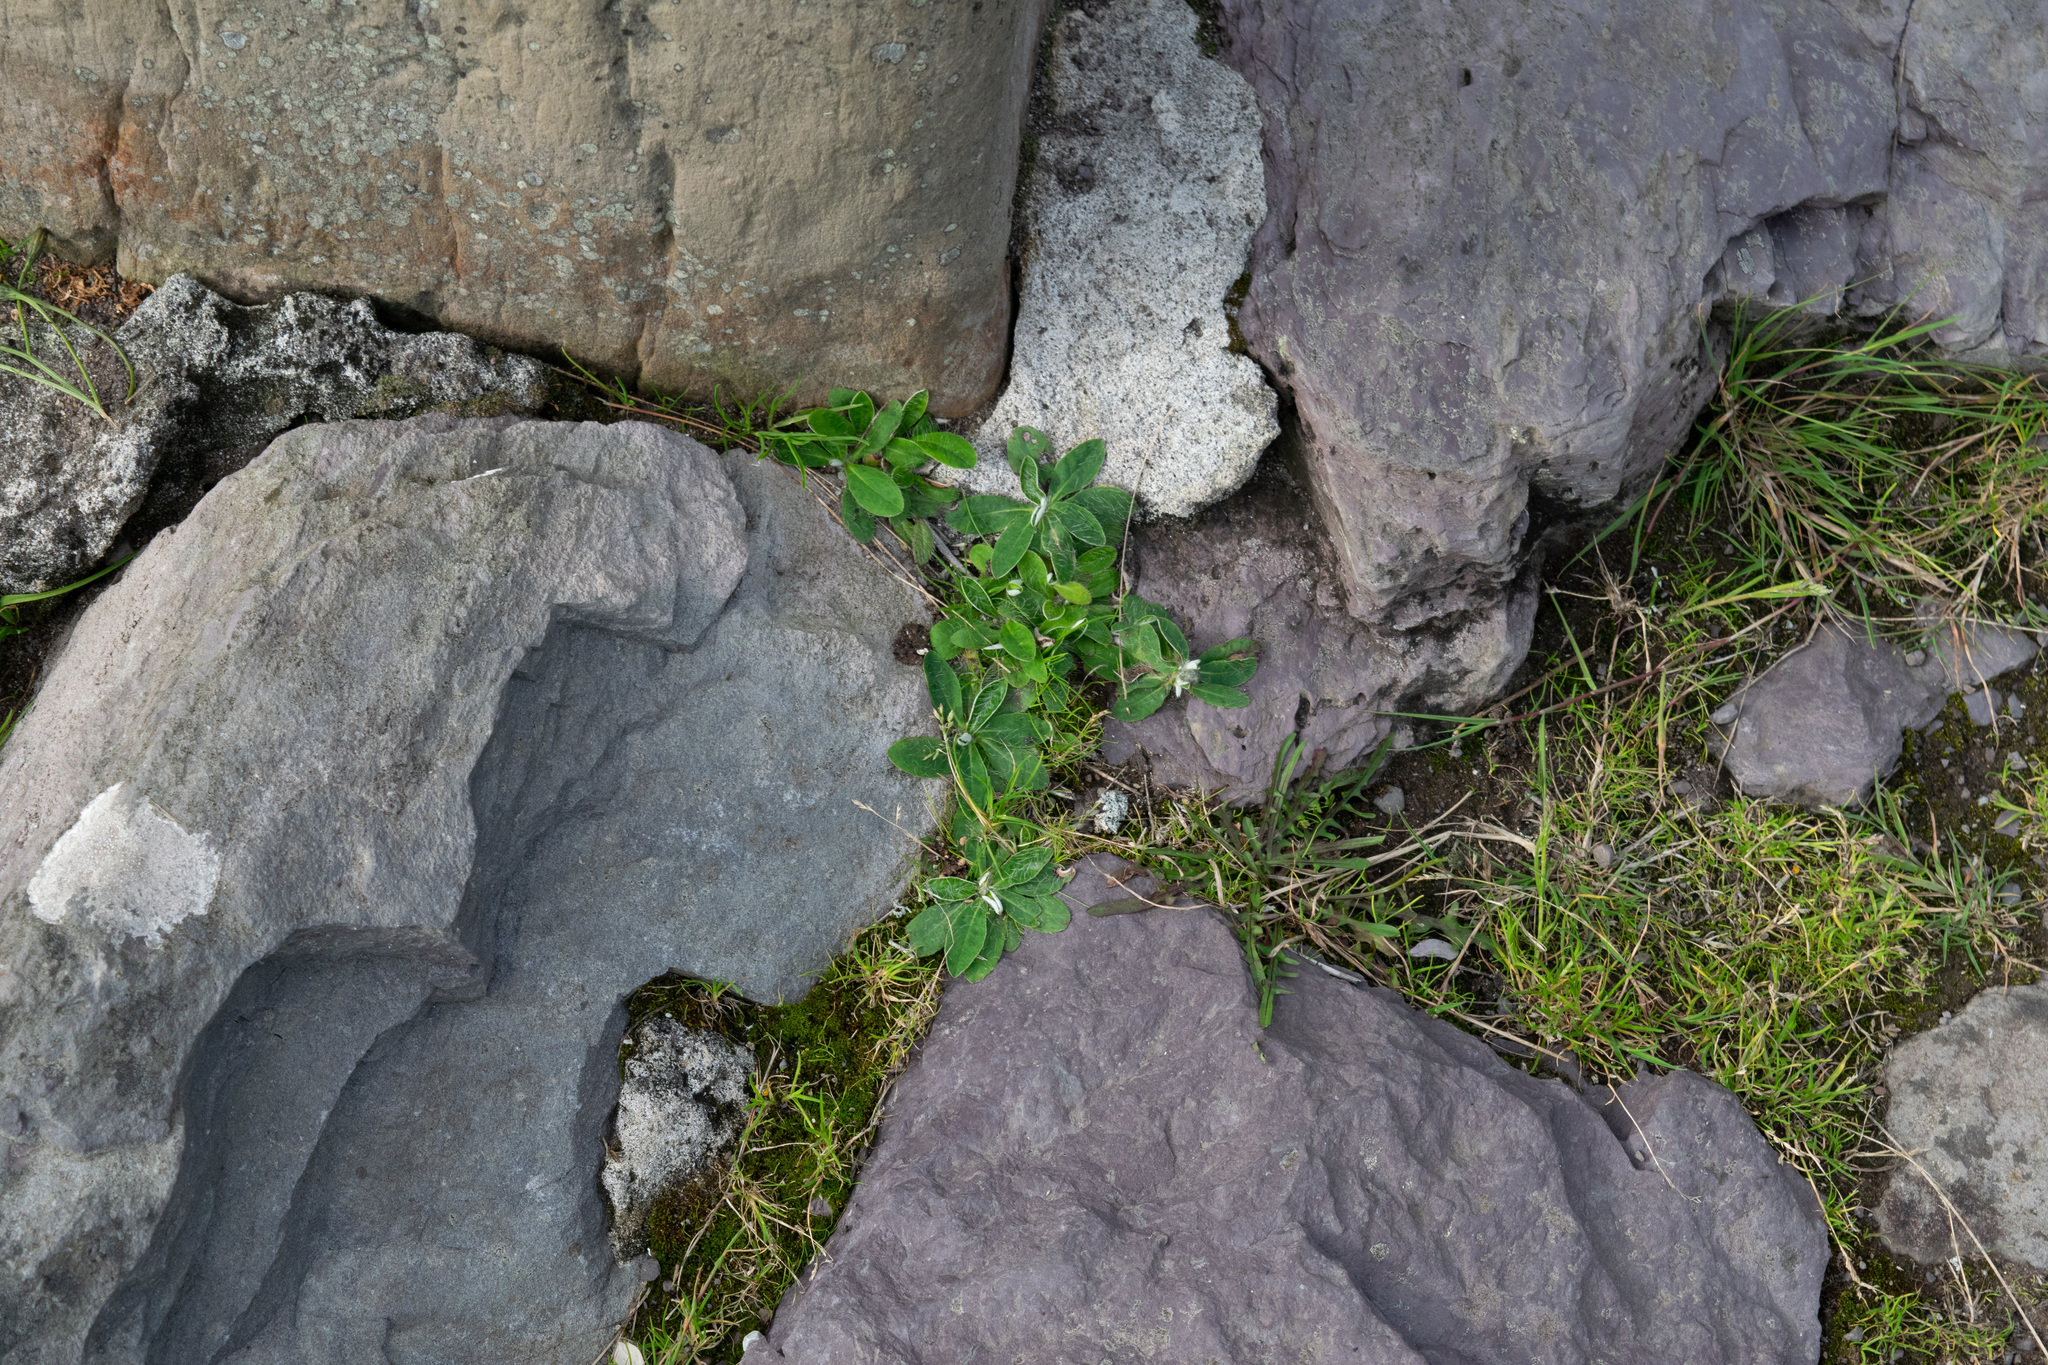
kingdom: Plantae
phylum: Tracheophyta
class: Magnoliopsida
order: Asterales
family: Asteraceae
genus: Pilosella
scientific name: Pilosella officinarum
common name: Mouse-ear hawkweed
